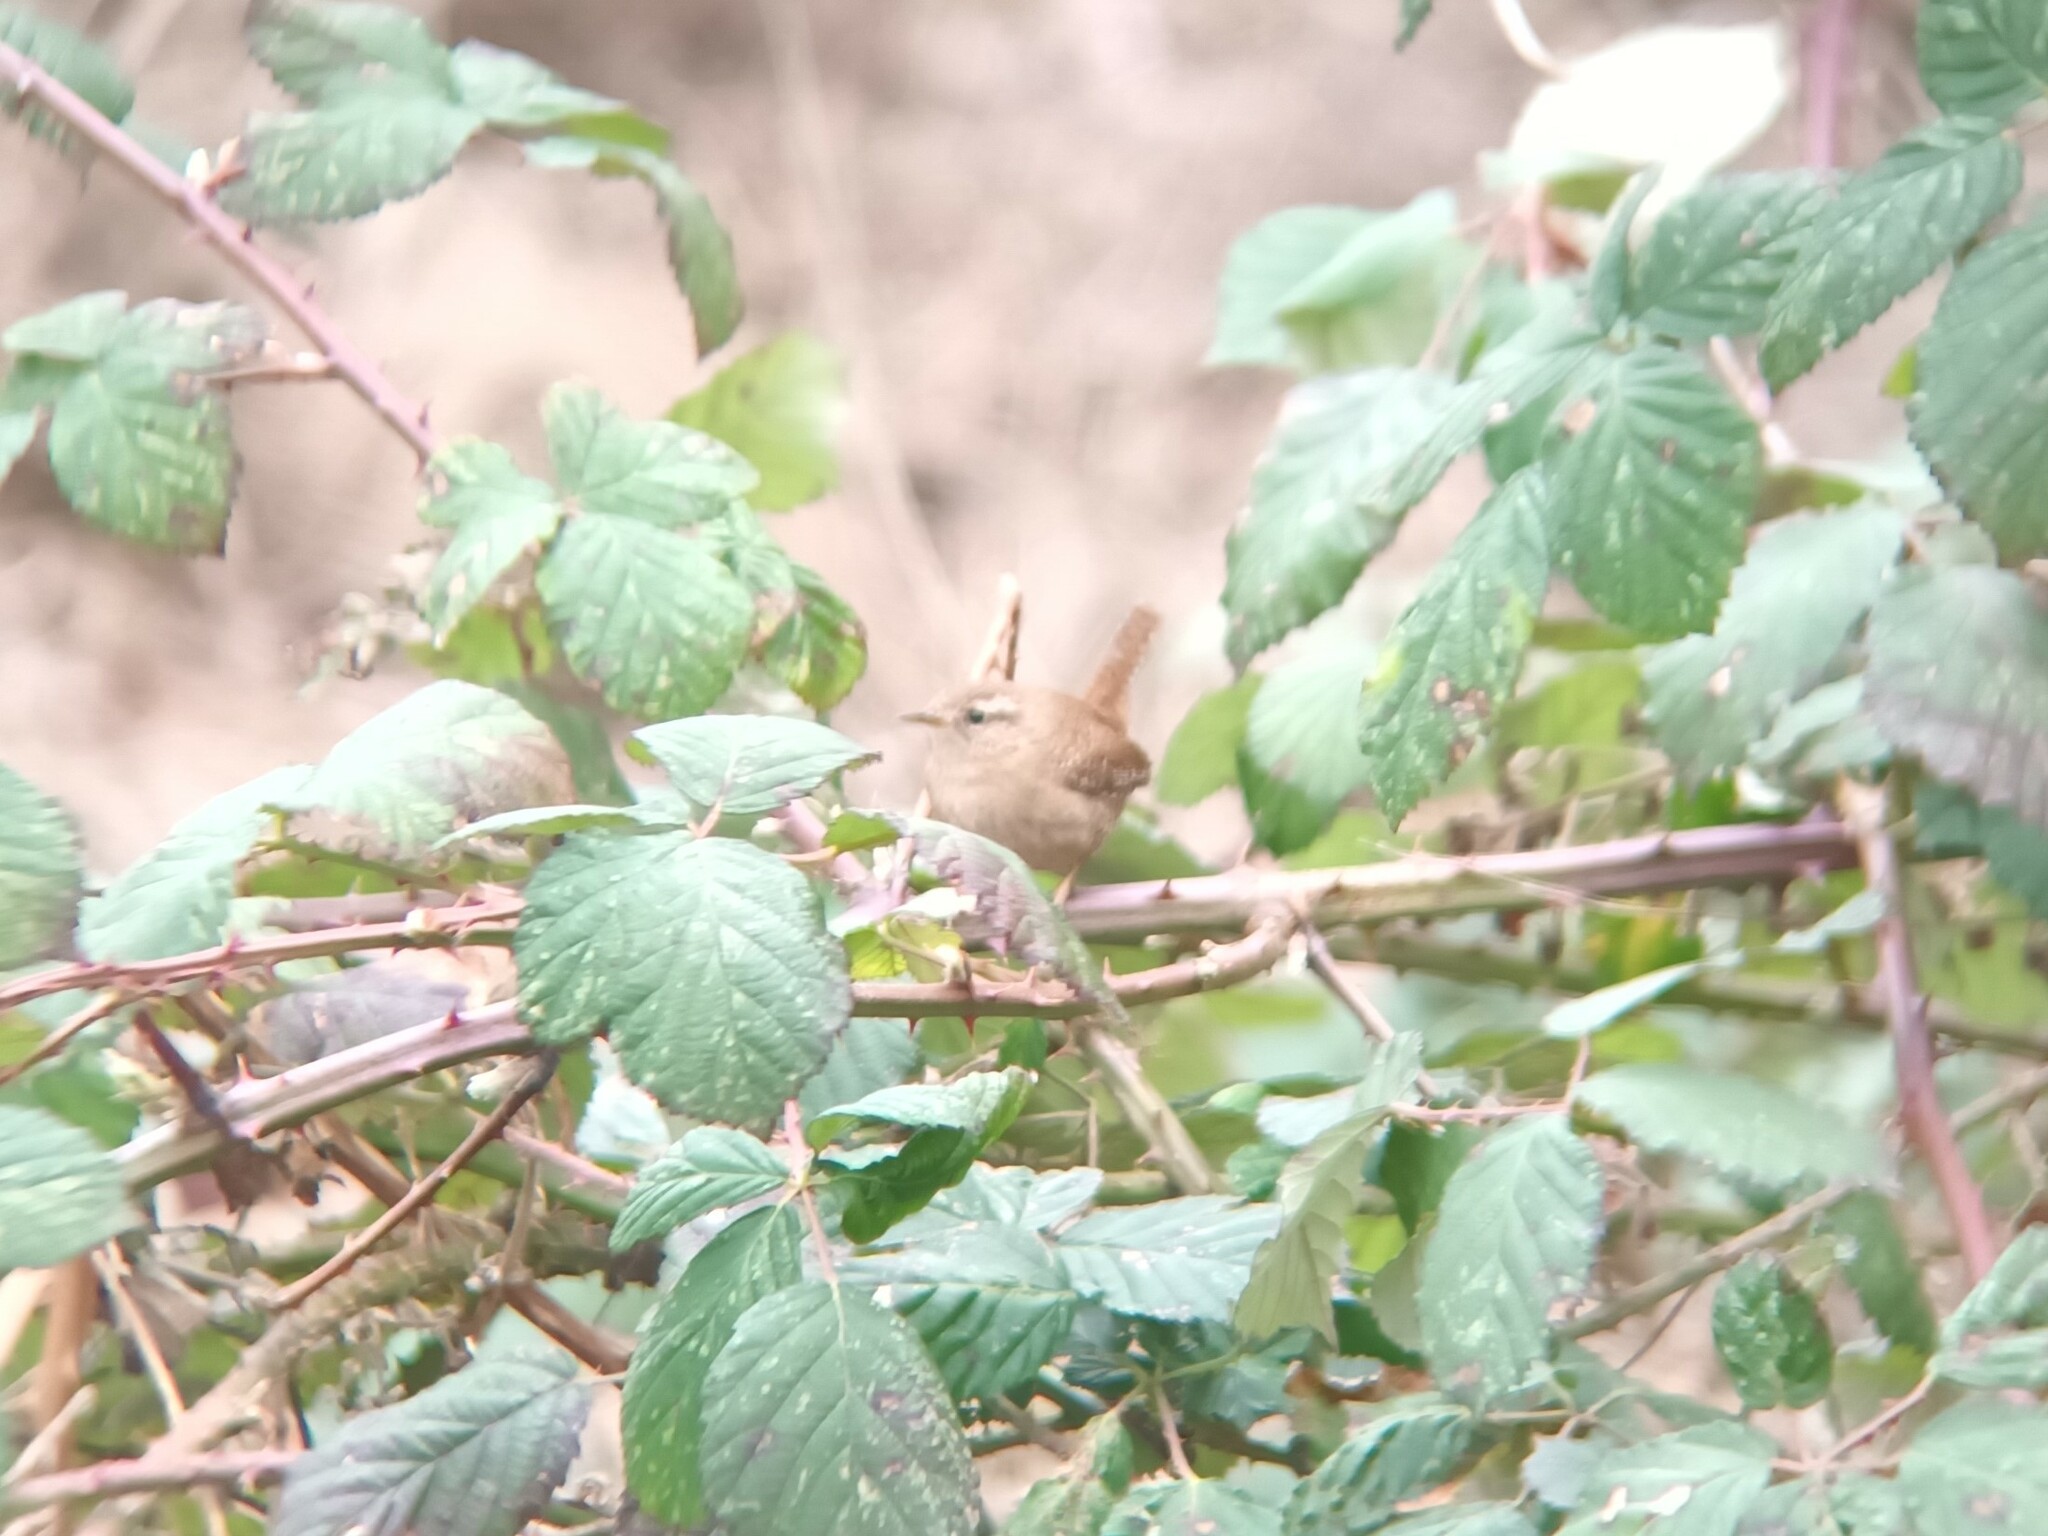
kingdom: Animalia
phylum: Chordata
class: Aves
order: Passeriformes
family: Troglodytidae
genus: Troglodytes
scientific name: Troglodytes troglodytes
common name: Eurasian wren
